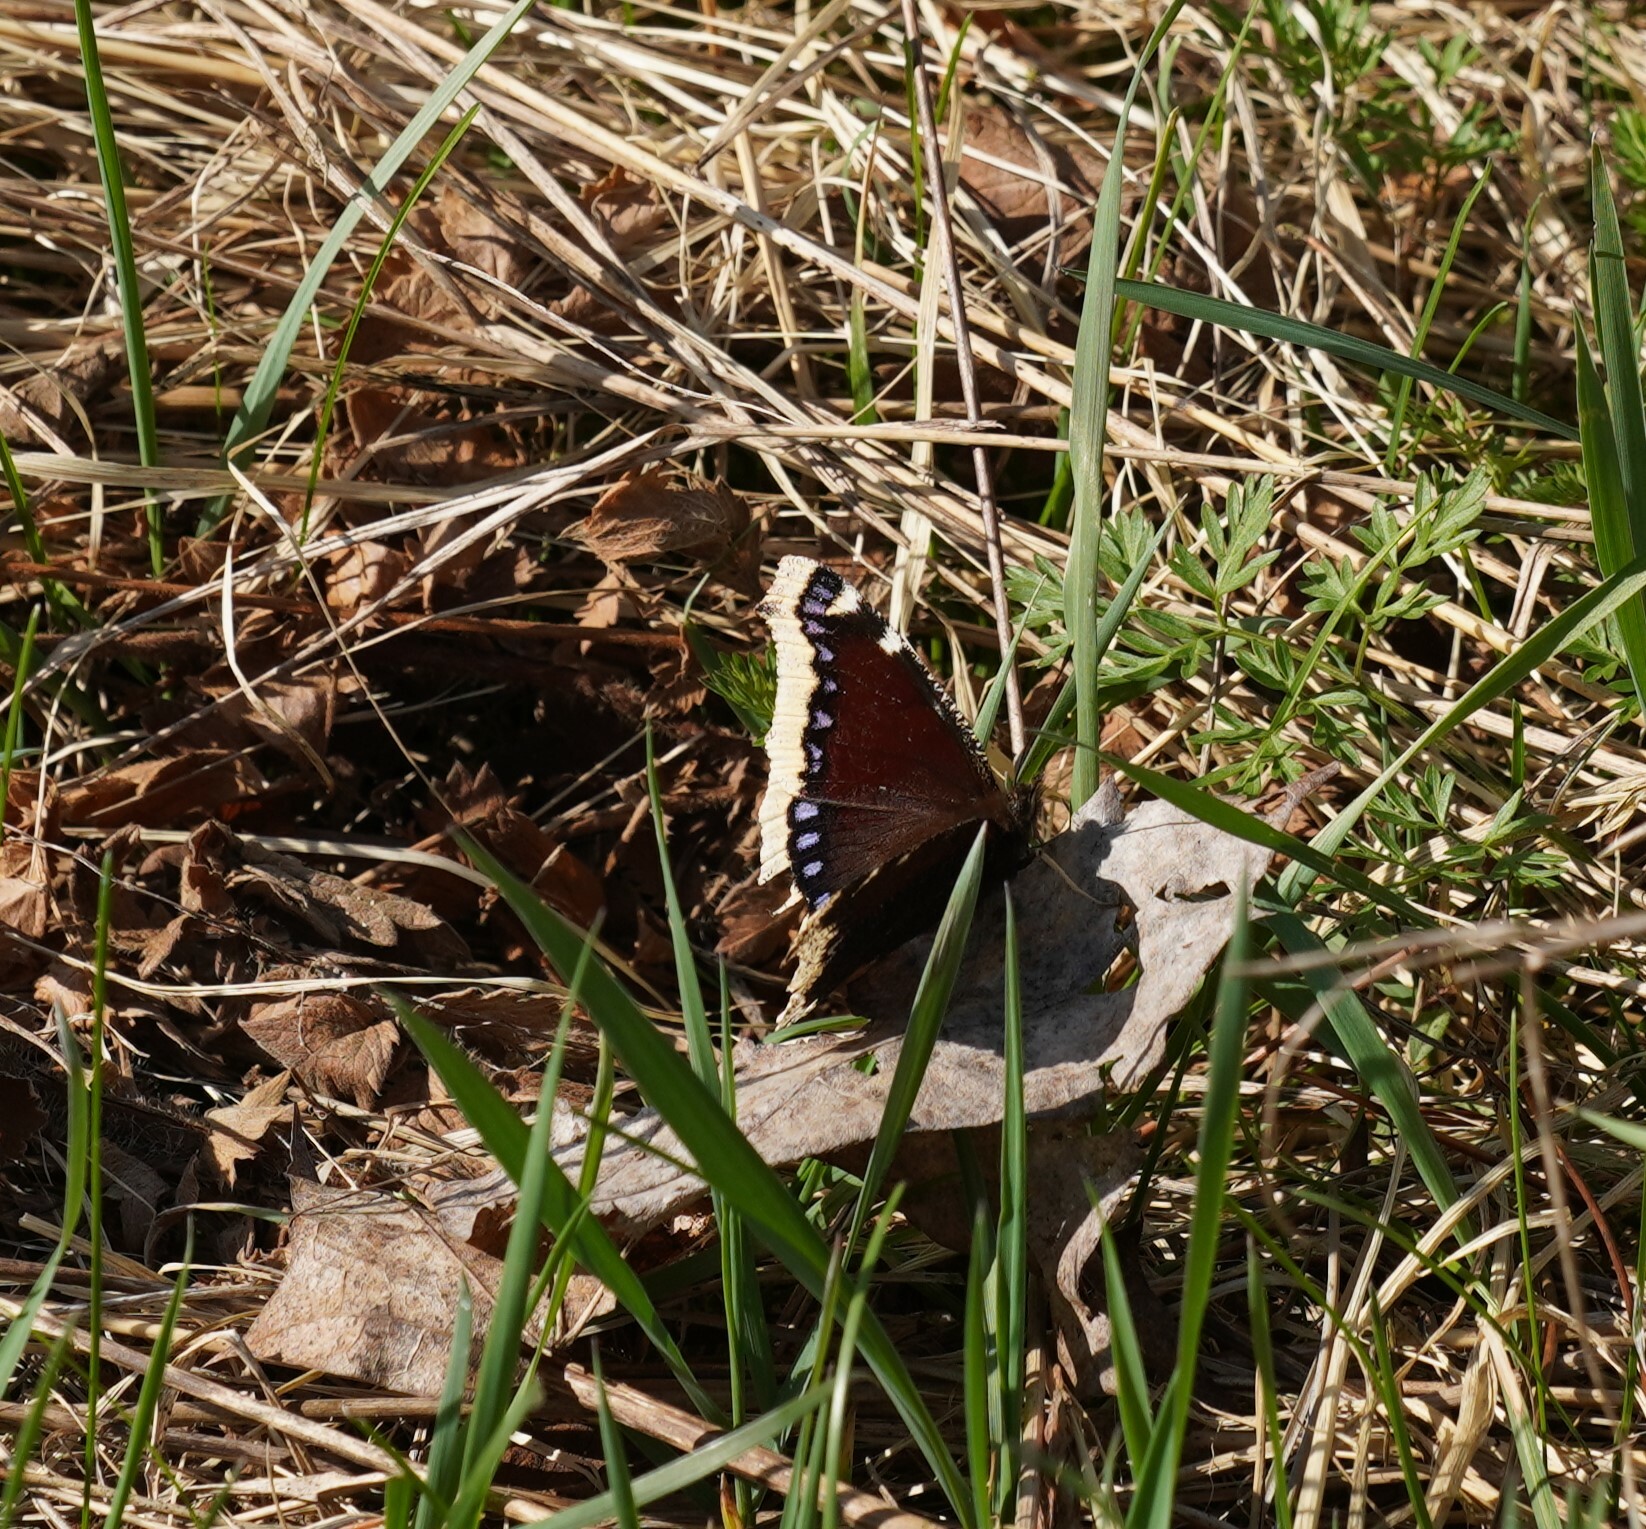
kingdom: Animalia
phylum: Arthropoda
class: Insecta
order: Lepidoptera
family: Nymphalidae
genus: Nymphalis
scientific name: Nymphalis antiopa
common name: Camberwell beauty
